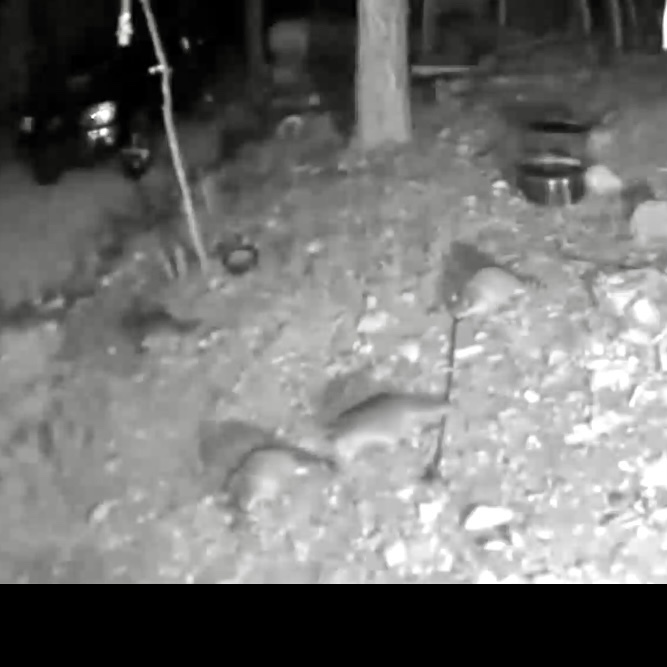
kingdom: Animalia
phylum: Chordata
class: Mammalia
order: Carnivora
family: Procyonidae
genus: Procyon
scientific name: Procyon lotor
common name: Raccoon
